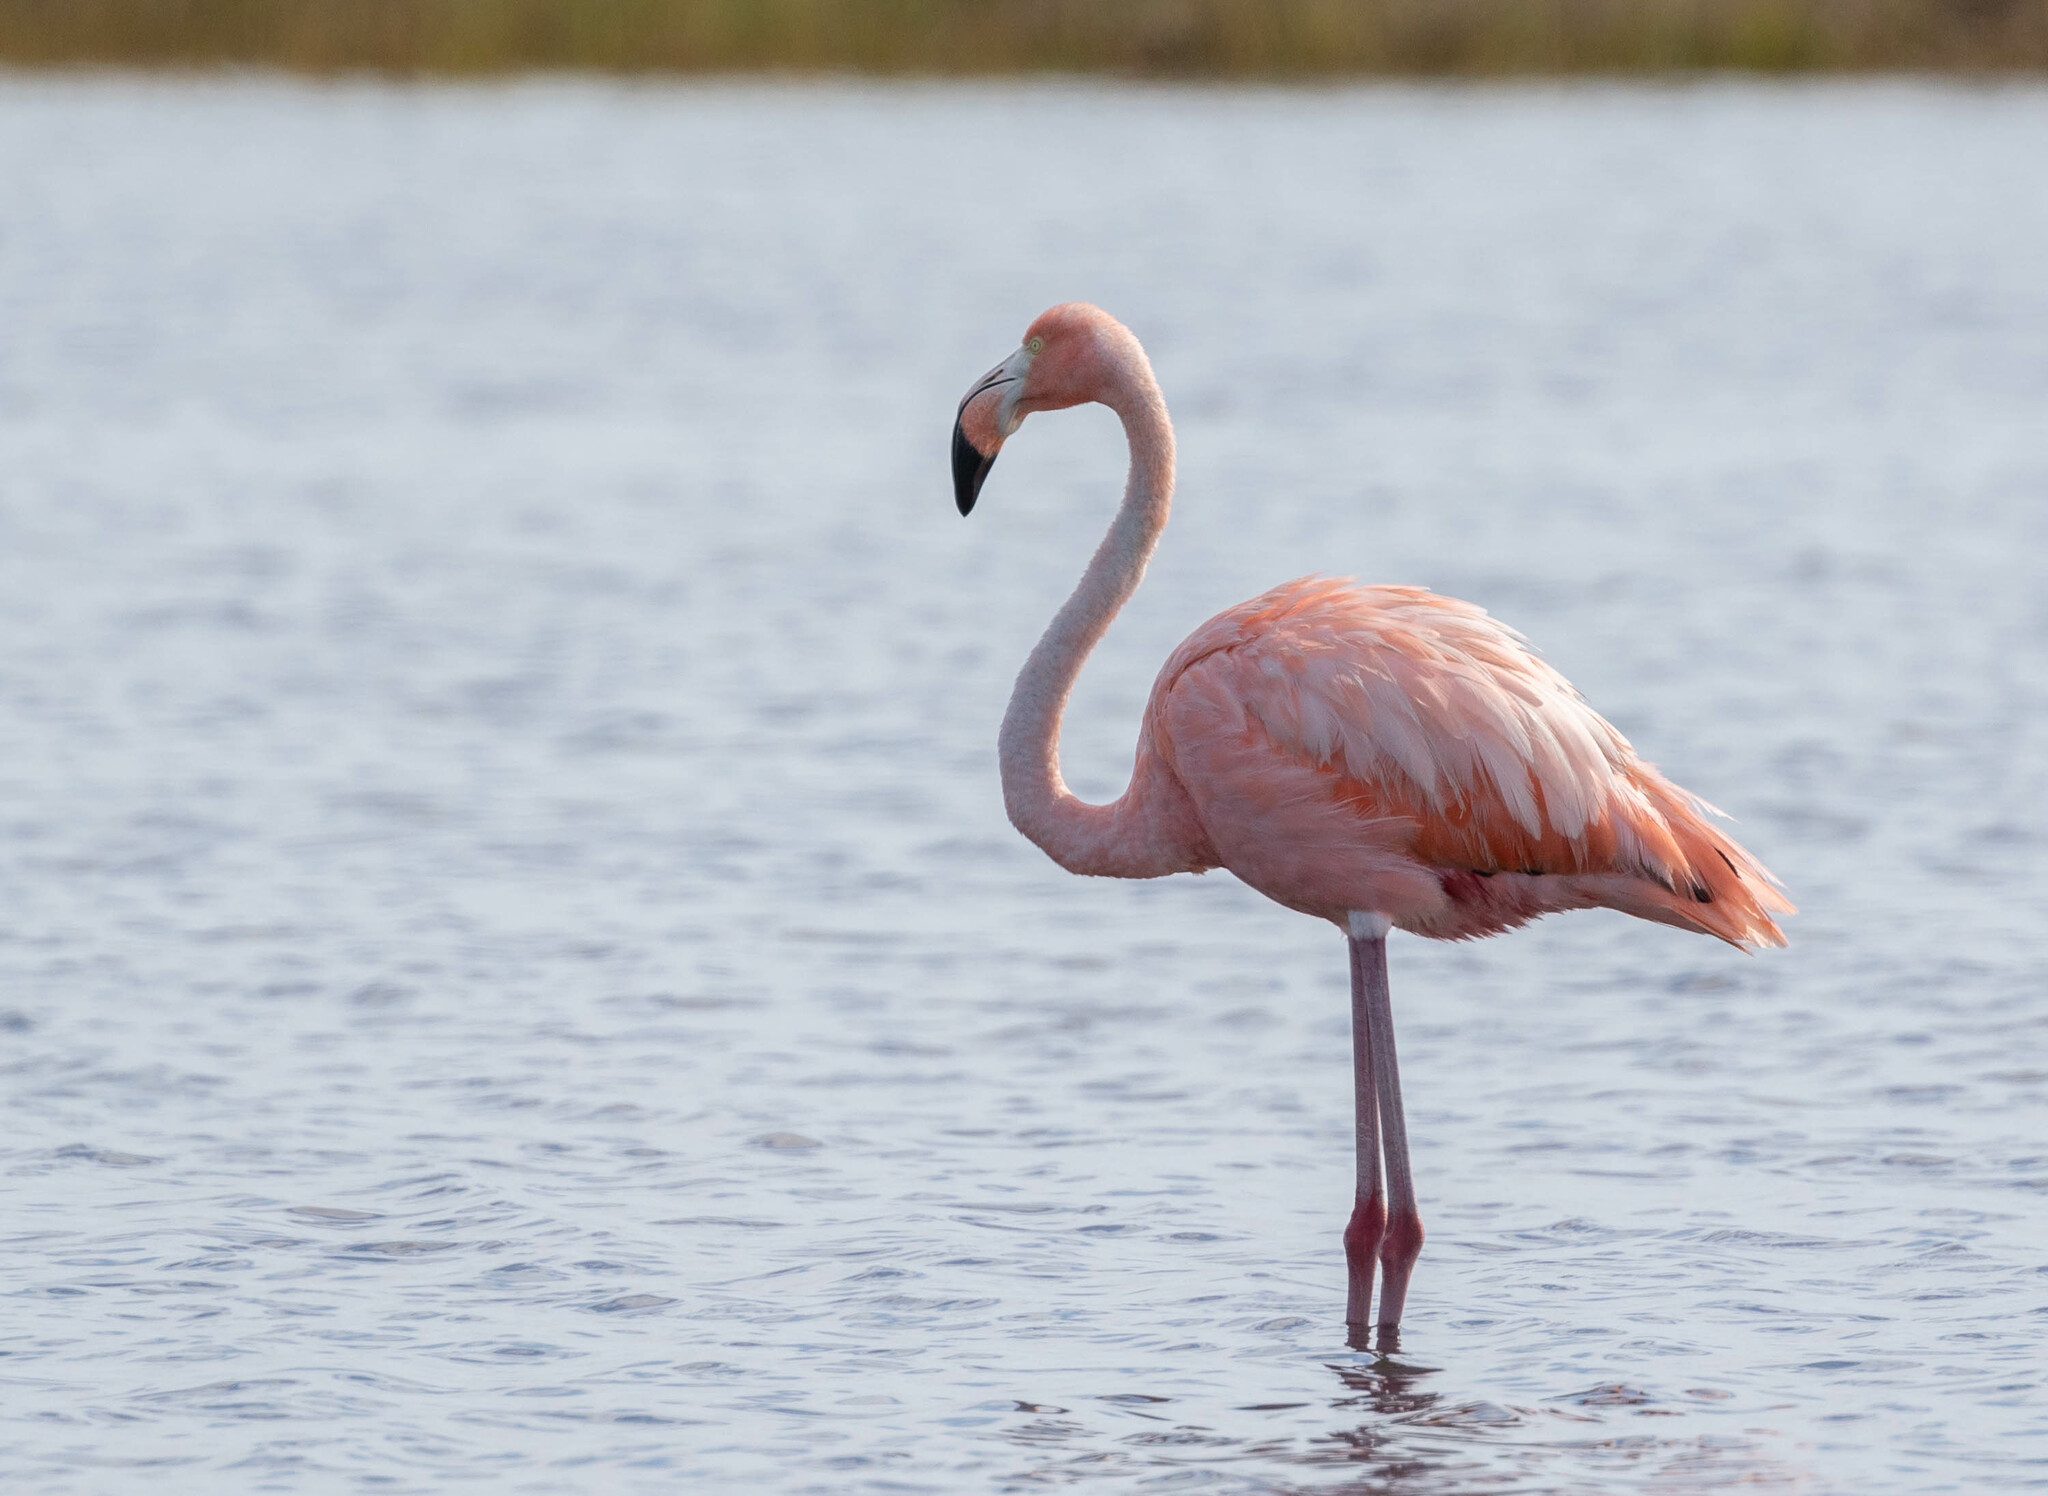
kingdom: Animalia
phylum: Chordata
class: Aves
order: Phoenicopteriformes
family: Phoenicopteridae
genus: Phoenicopterus
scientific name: Phoenicopterus ruber
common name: American flamingo
